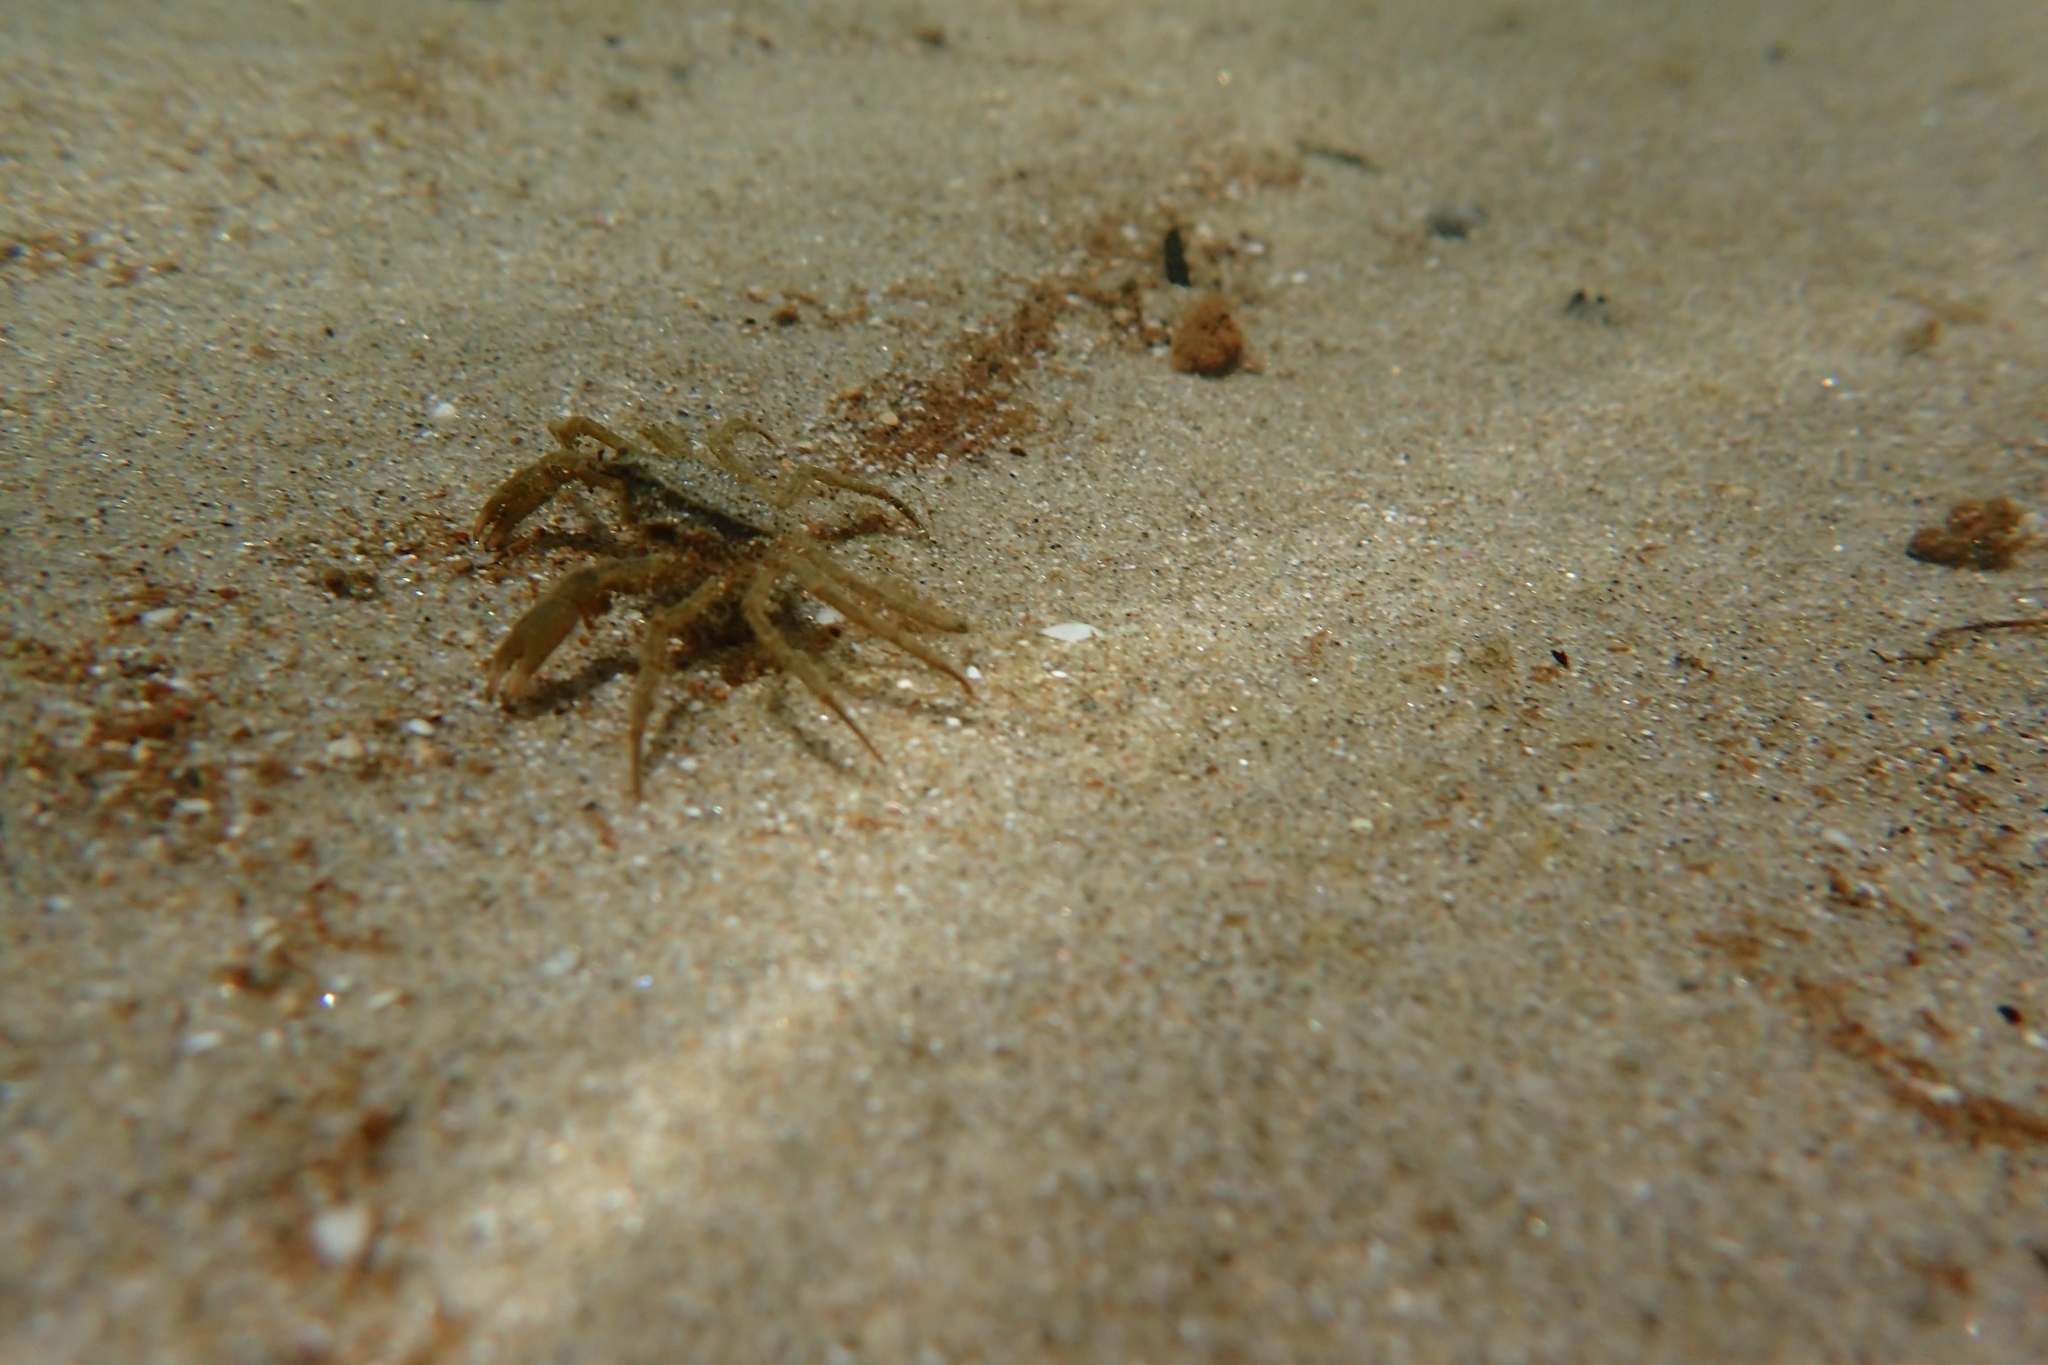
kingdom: Animalia
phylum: Arthropoda
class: Malacostraca
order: Decapoda
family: Hymenosomatidae
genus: Halicarcinus
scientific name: Halicarcinus whitei
